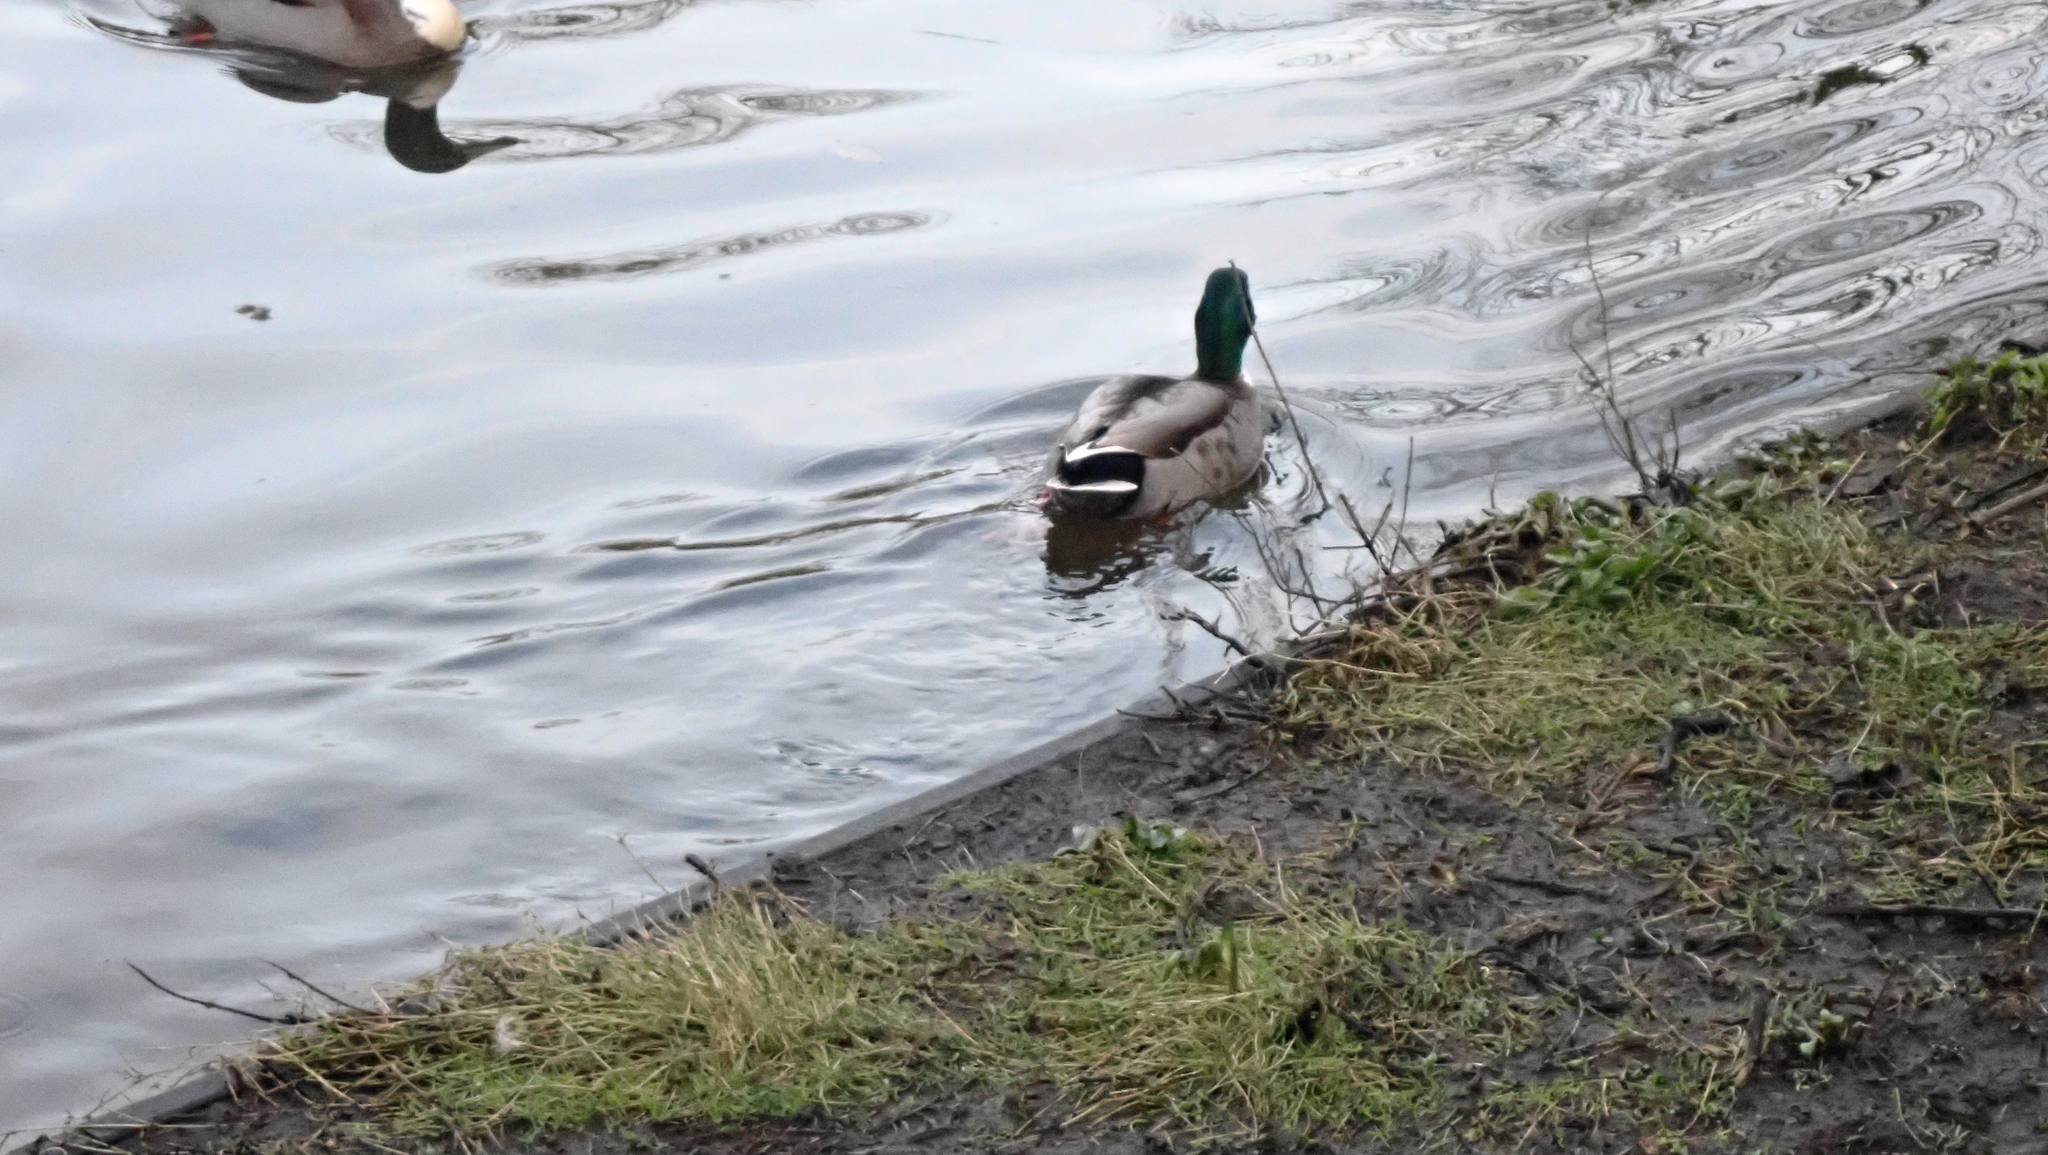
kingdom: Animalia
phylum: Chordata
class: Aves
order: Anseriformes
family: Anatidae
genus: Anas
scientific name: Anas platyrhynchos
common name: Mallard
